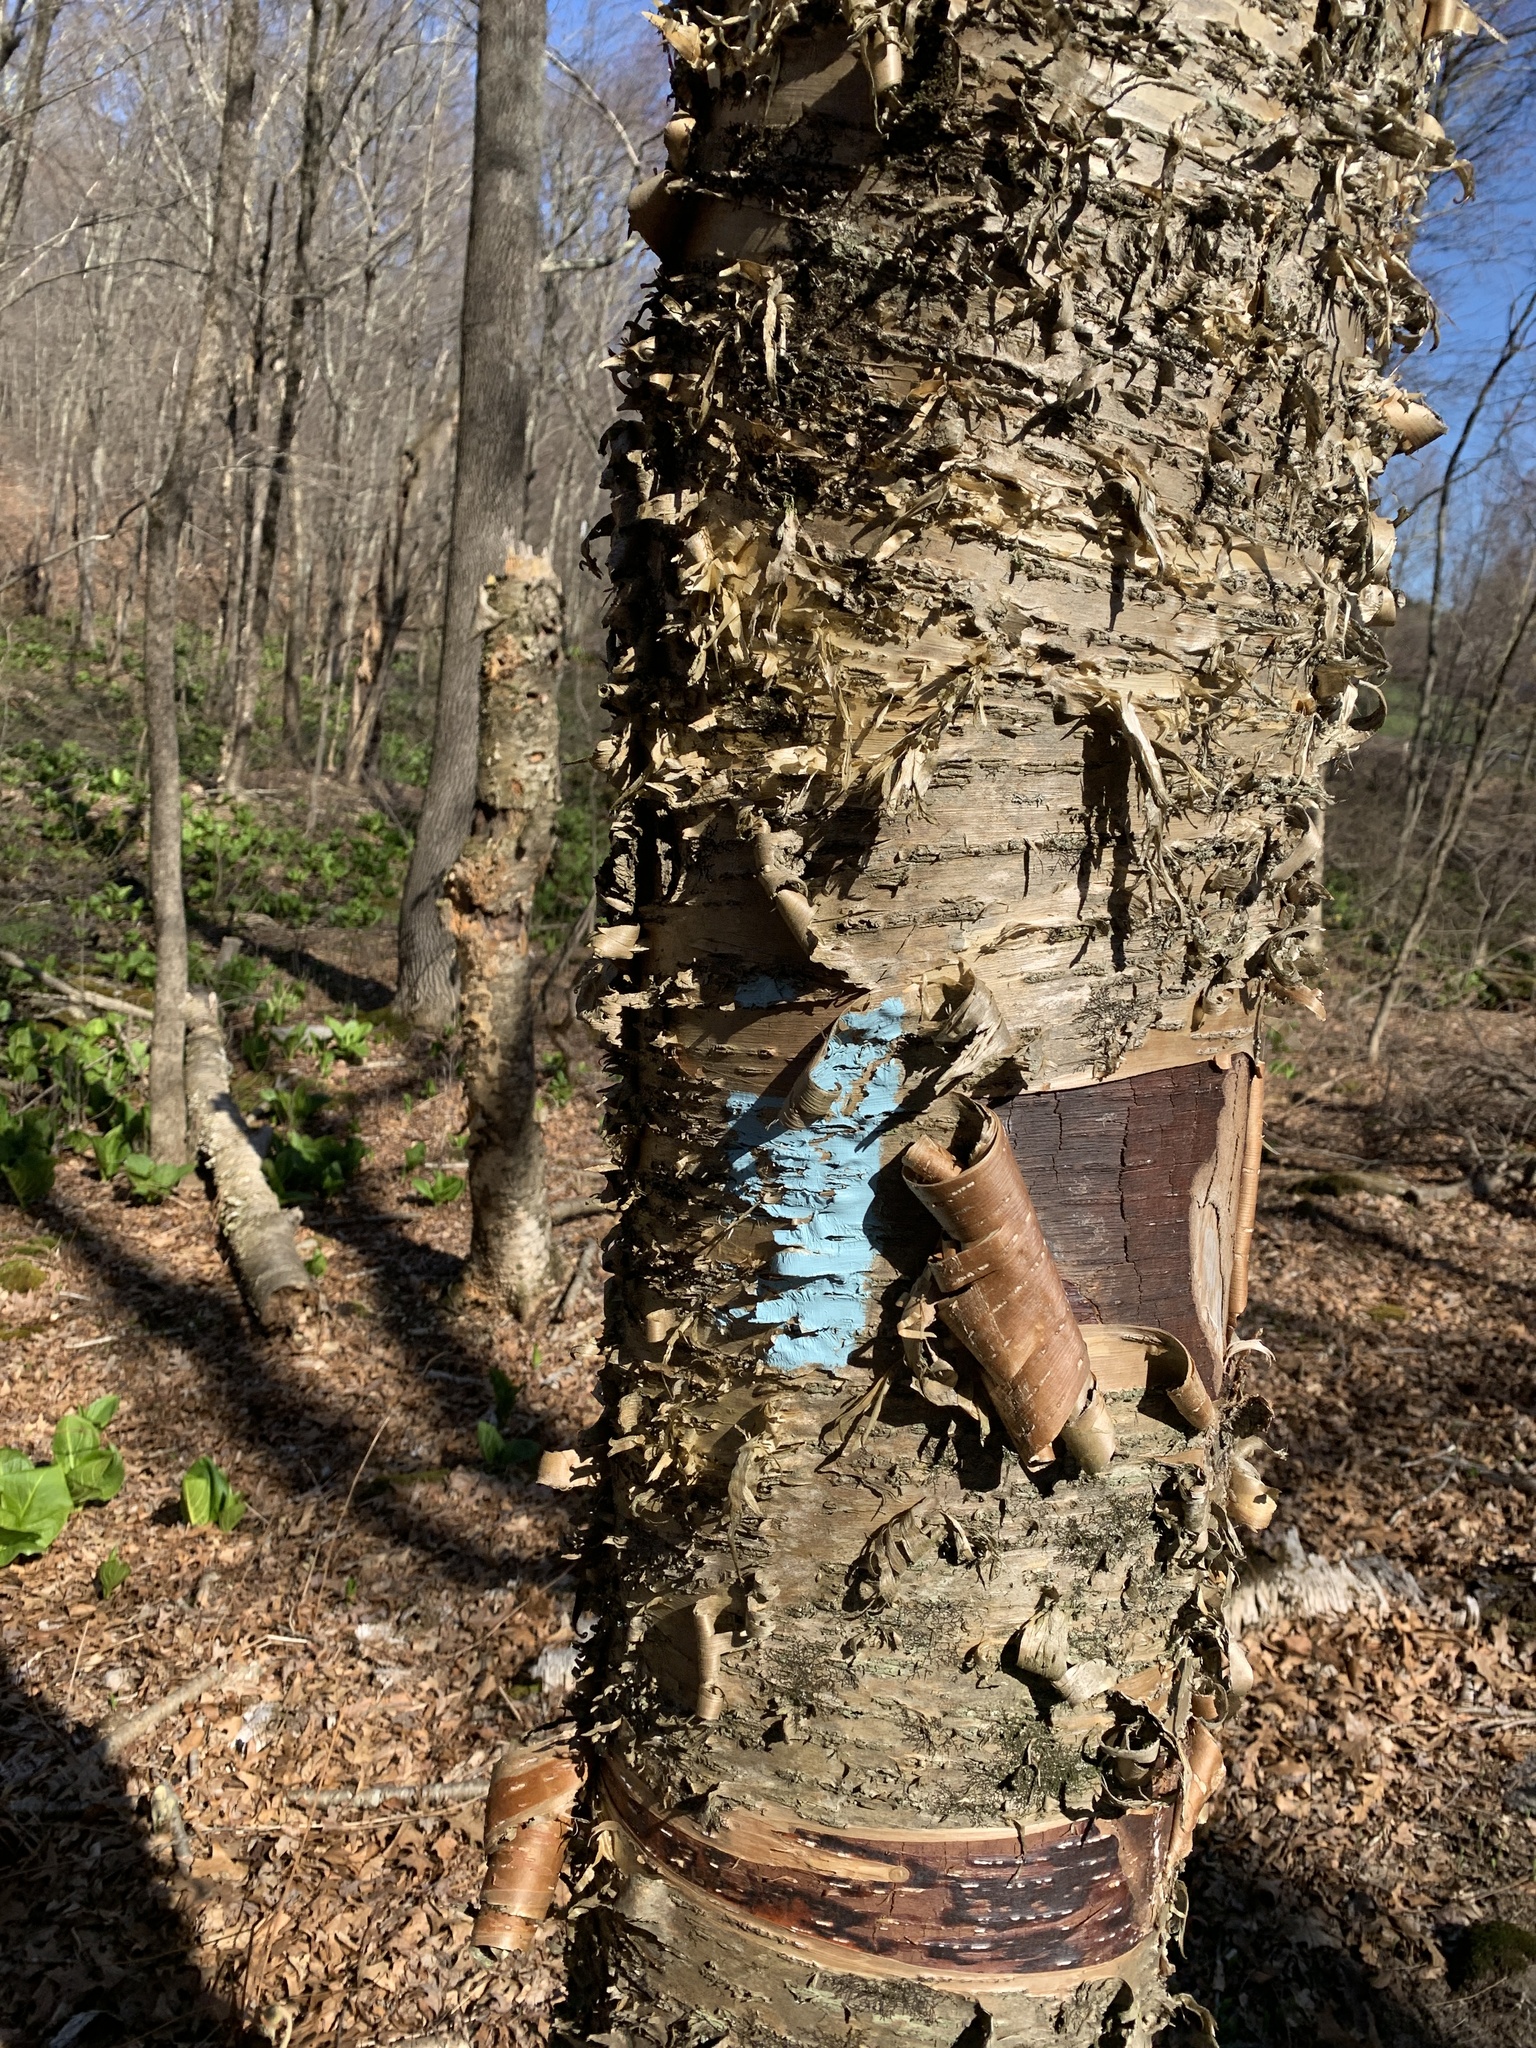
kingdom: Plantae
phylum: Tracheophyta
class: Magnoliopsida
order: Fagales
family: Betulaceae
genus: Betula
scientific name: Betula alleghaniensis
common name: Yellow birch
